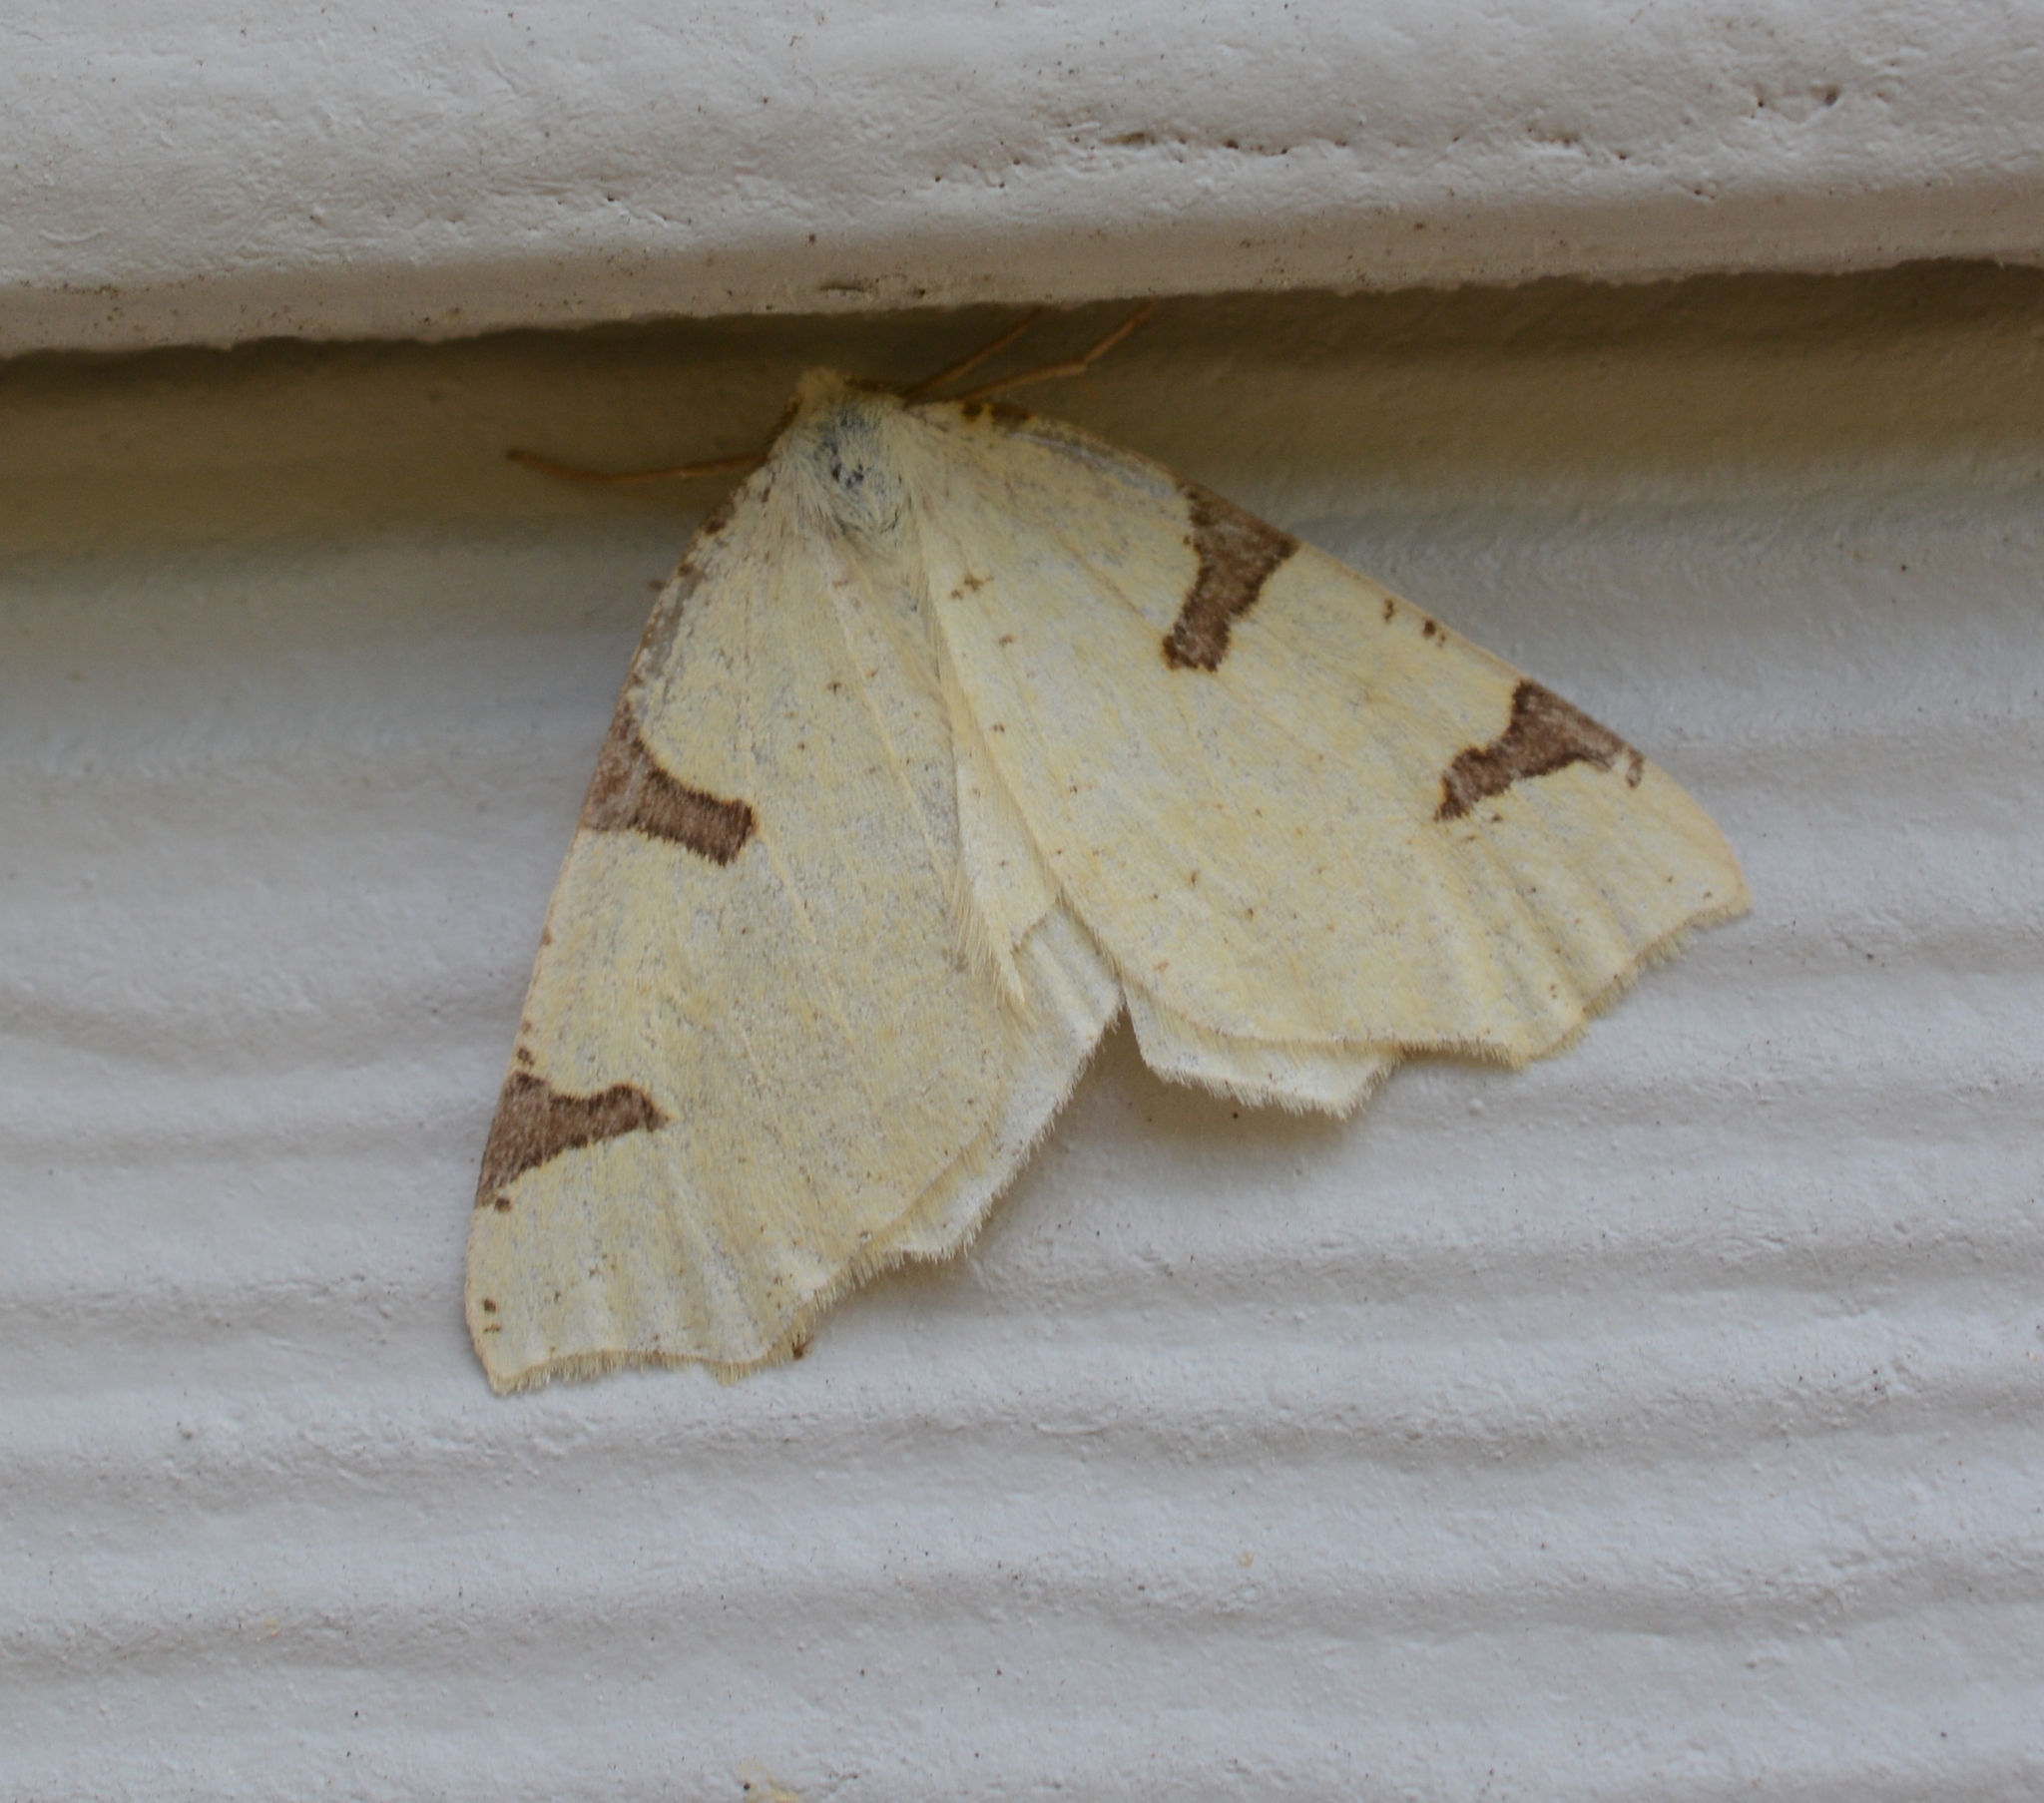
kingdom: Animalia
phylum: Arthropoda
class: Insecta
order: Lepidoptera
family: Geometridae
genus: Neoterpes
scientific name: Neoterpes trianguliferata
